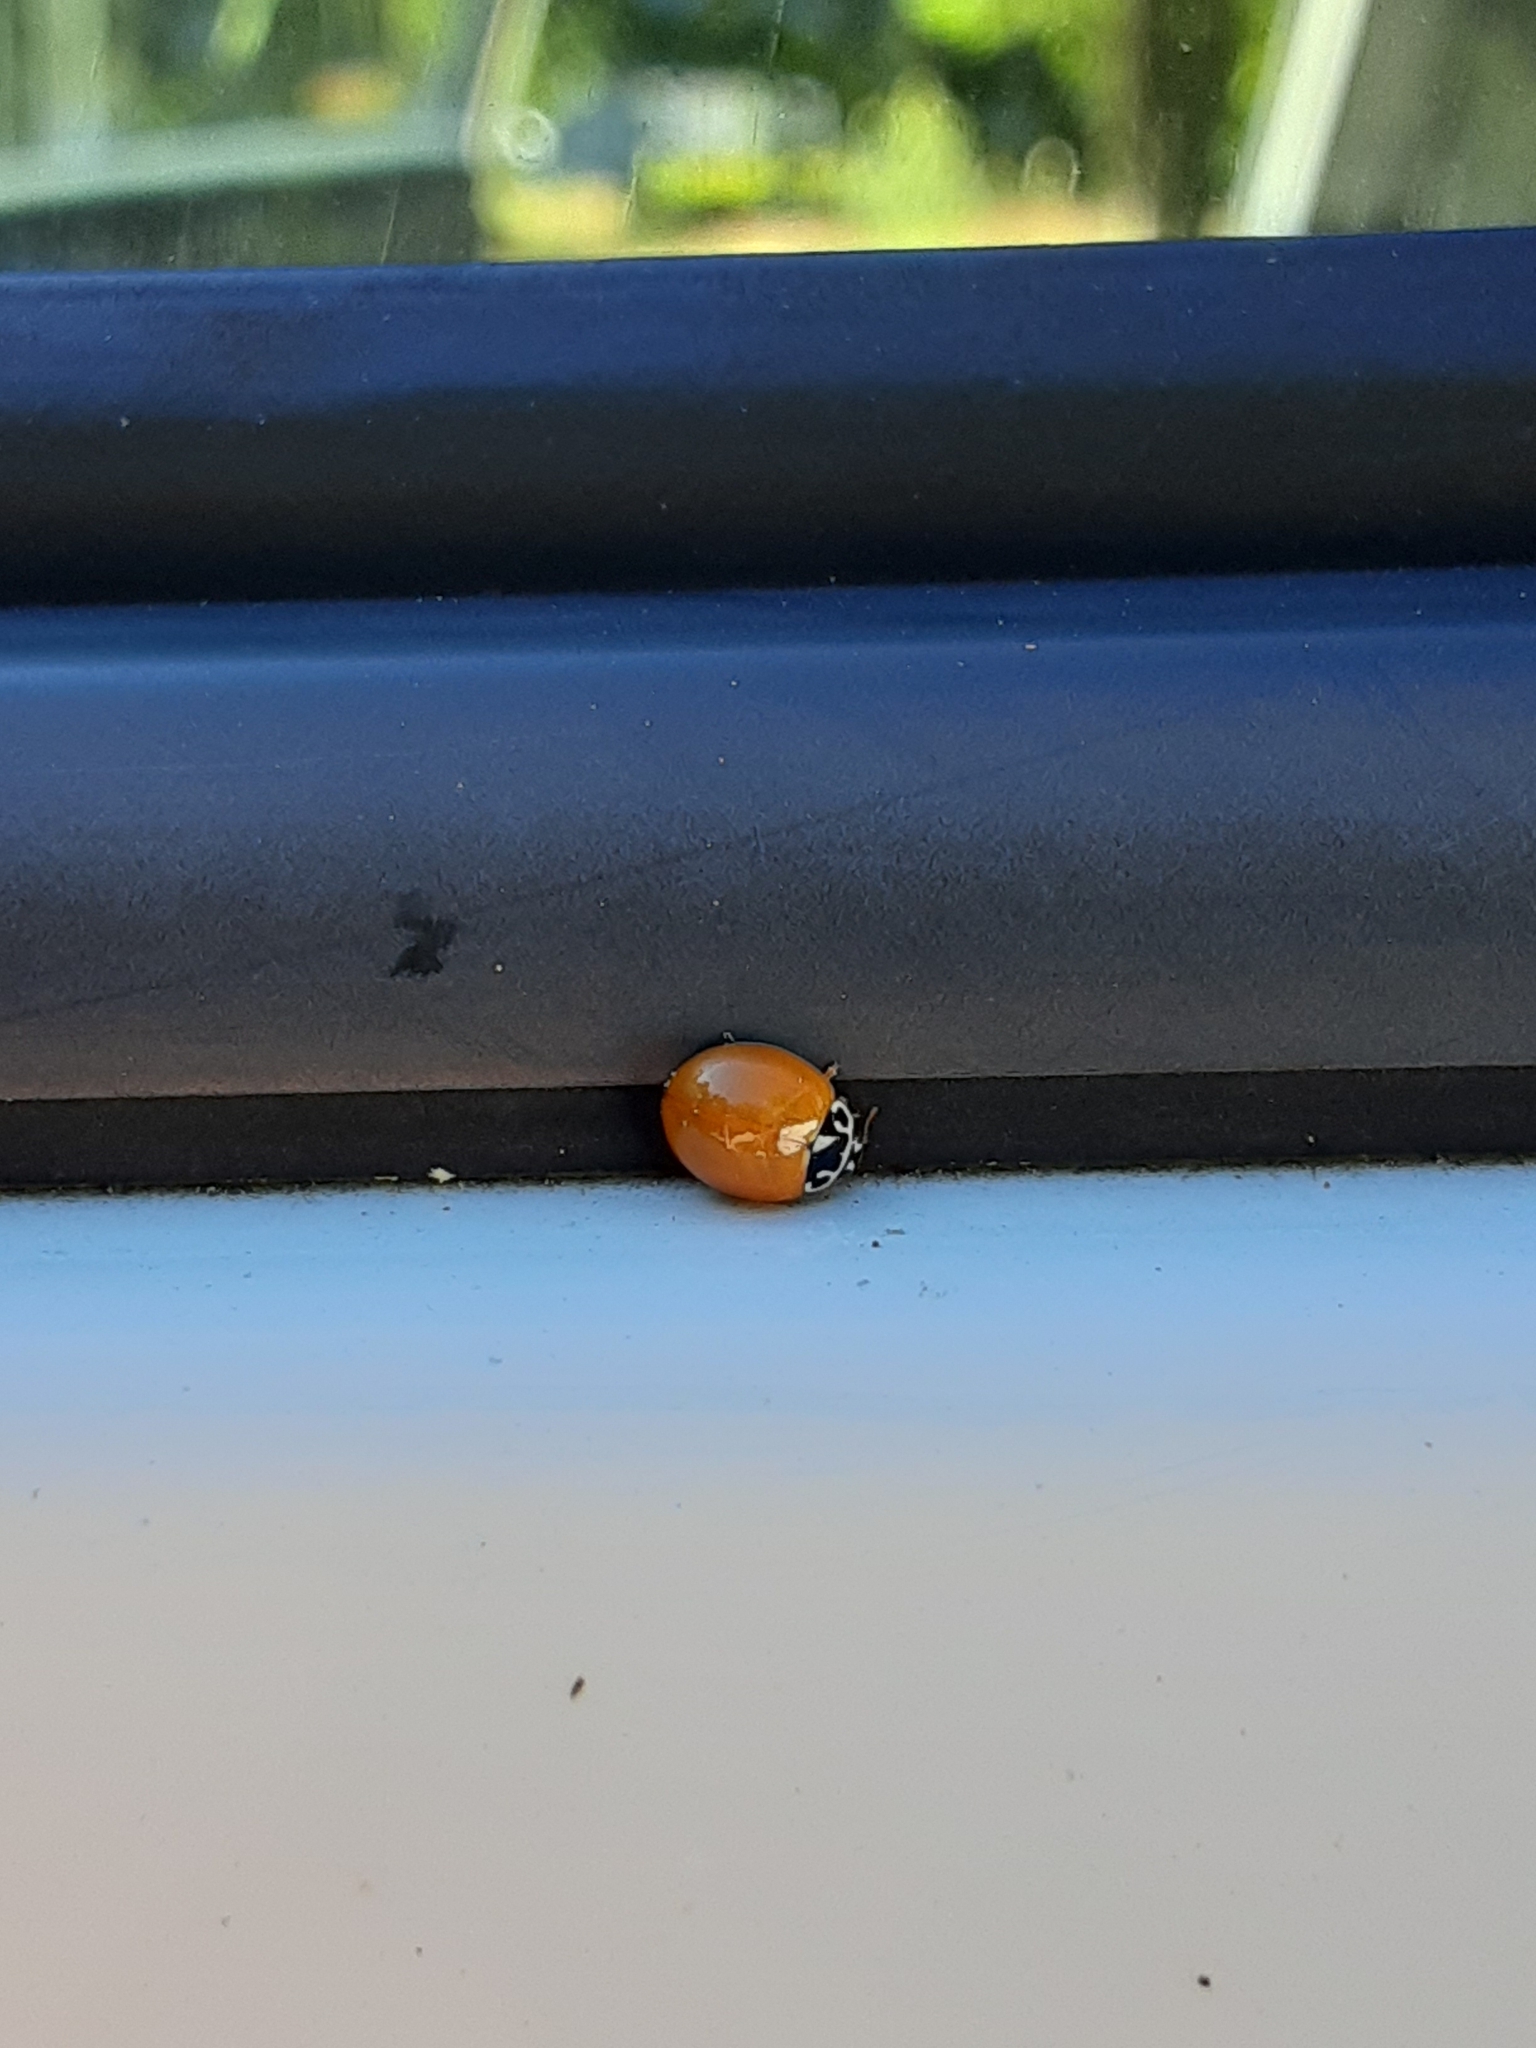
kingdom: Animalia
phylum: Arthropoda
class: Insecta
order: Coleoptera
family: Coccinellidae
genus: Cycloneda
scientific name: Cycloneda munda
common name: Polished lady beetle
